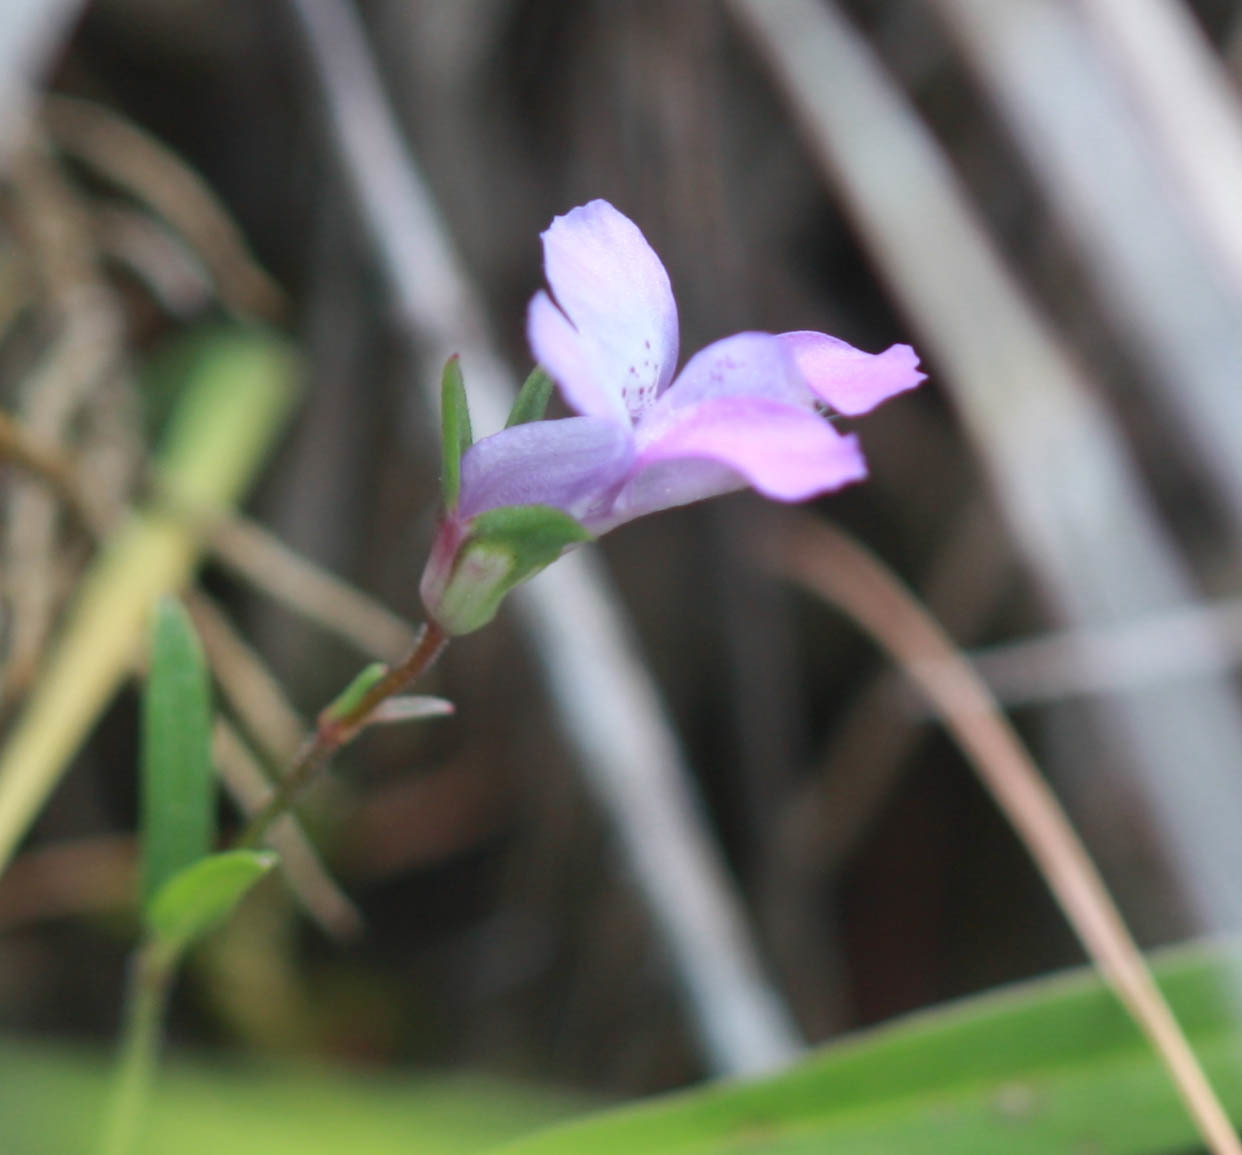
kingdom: Plantae
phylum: Tracheophyta
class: Magnoliopsida
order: Lamiales
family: Plantaginaceae
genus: Collinsia
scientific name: Collinsia sparsiflora
